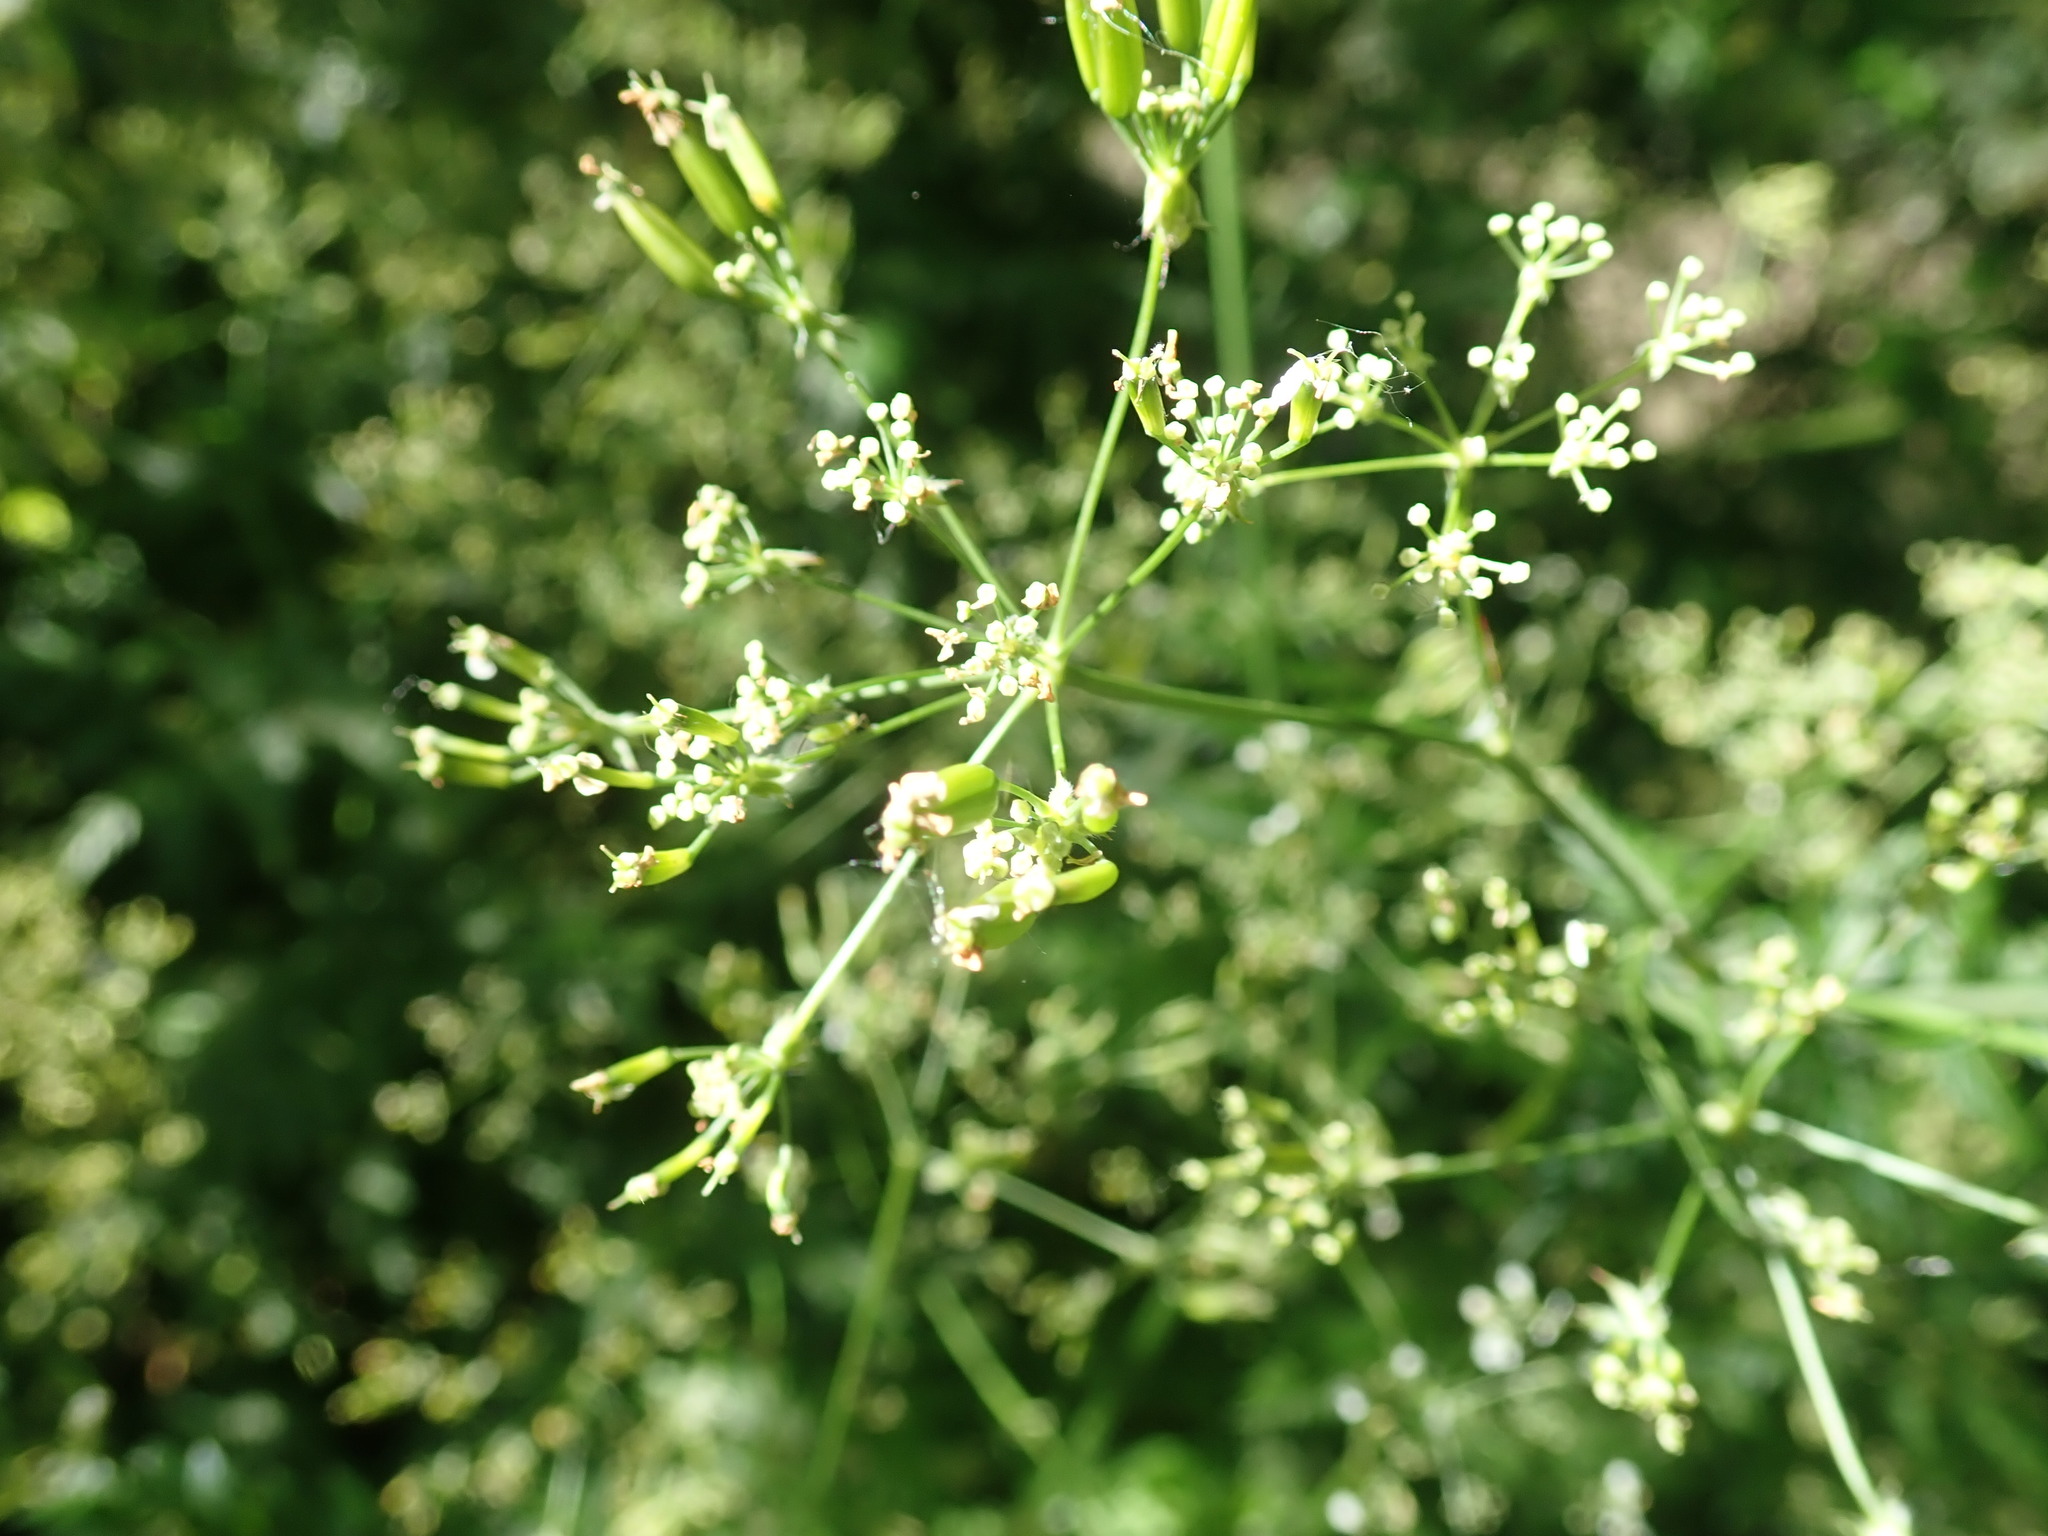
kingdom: Plantae
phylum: Tracheophyta
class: Magnoliopsida
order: Apiales
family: Apiaceae
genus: Anthriscus
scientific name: Anthriscus sylvestris
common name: Cow parsley
